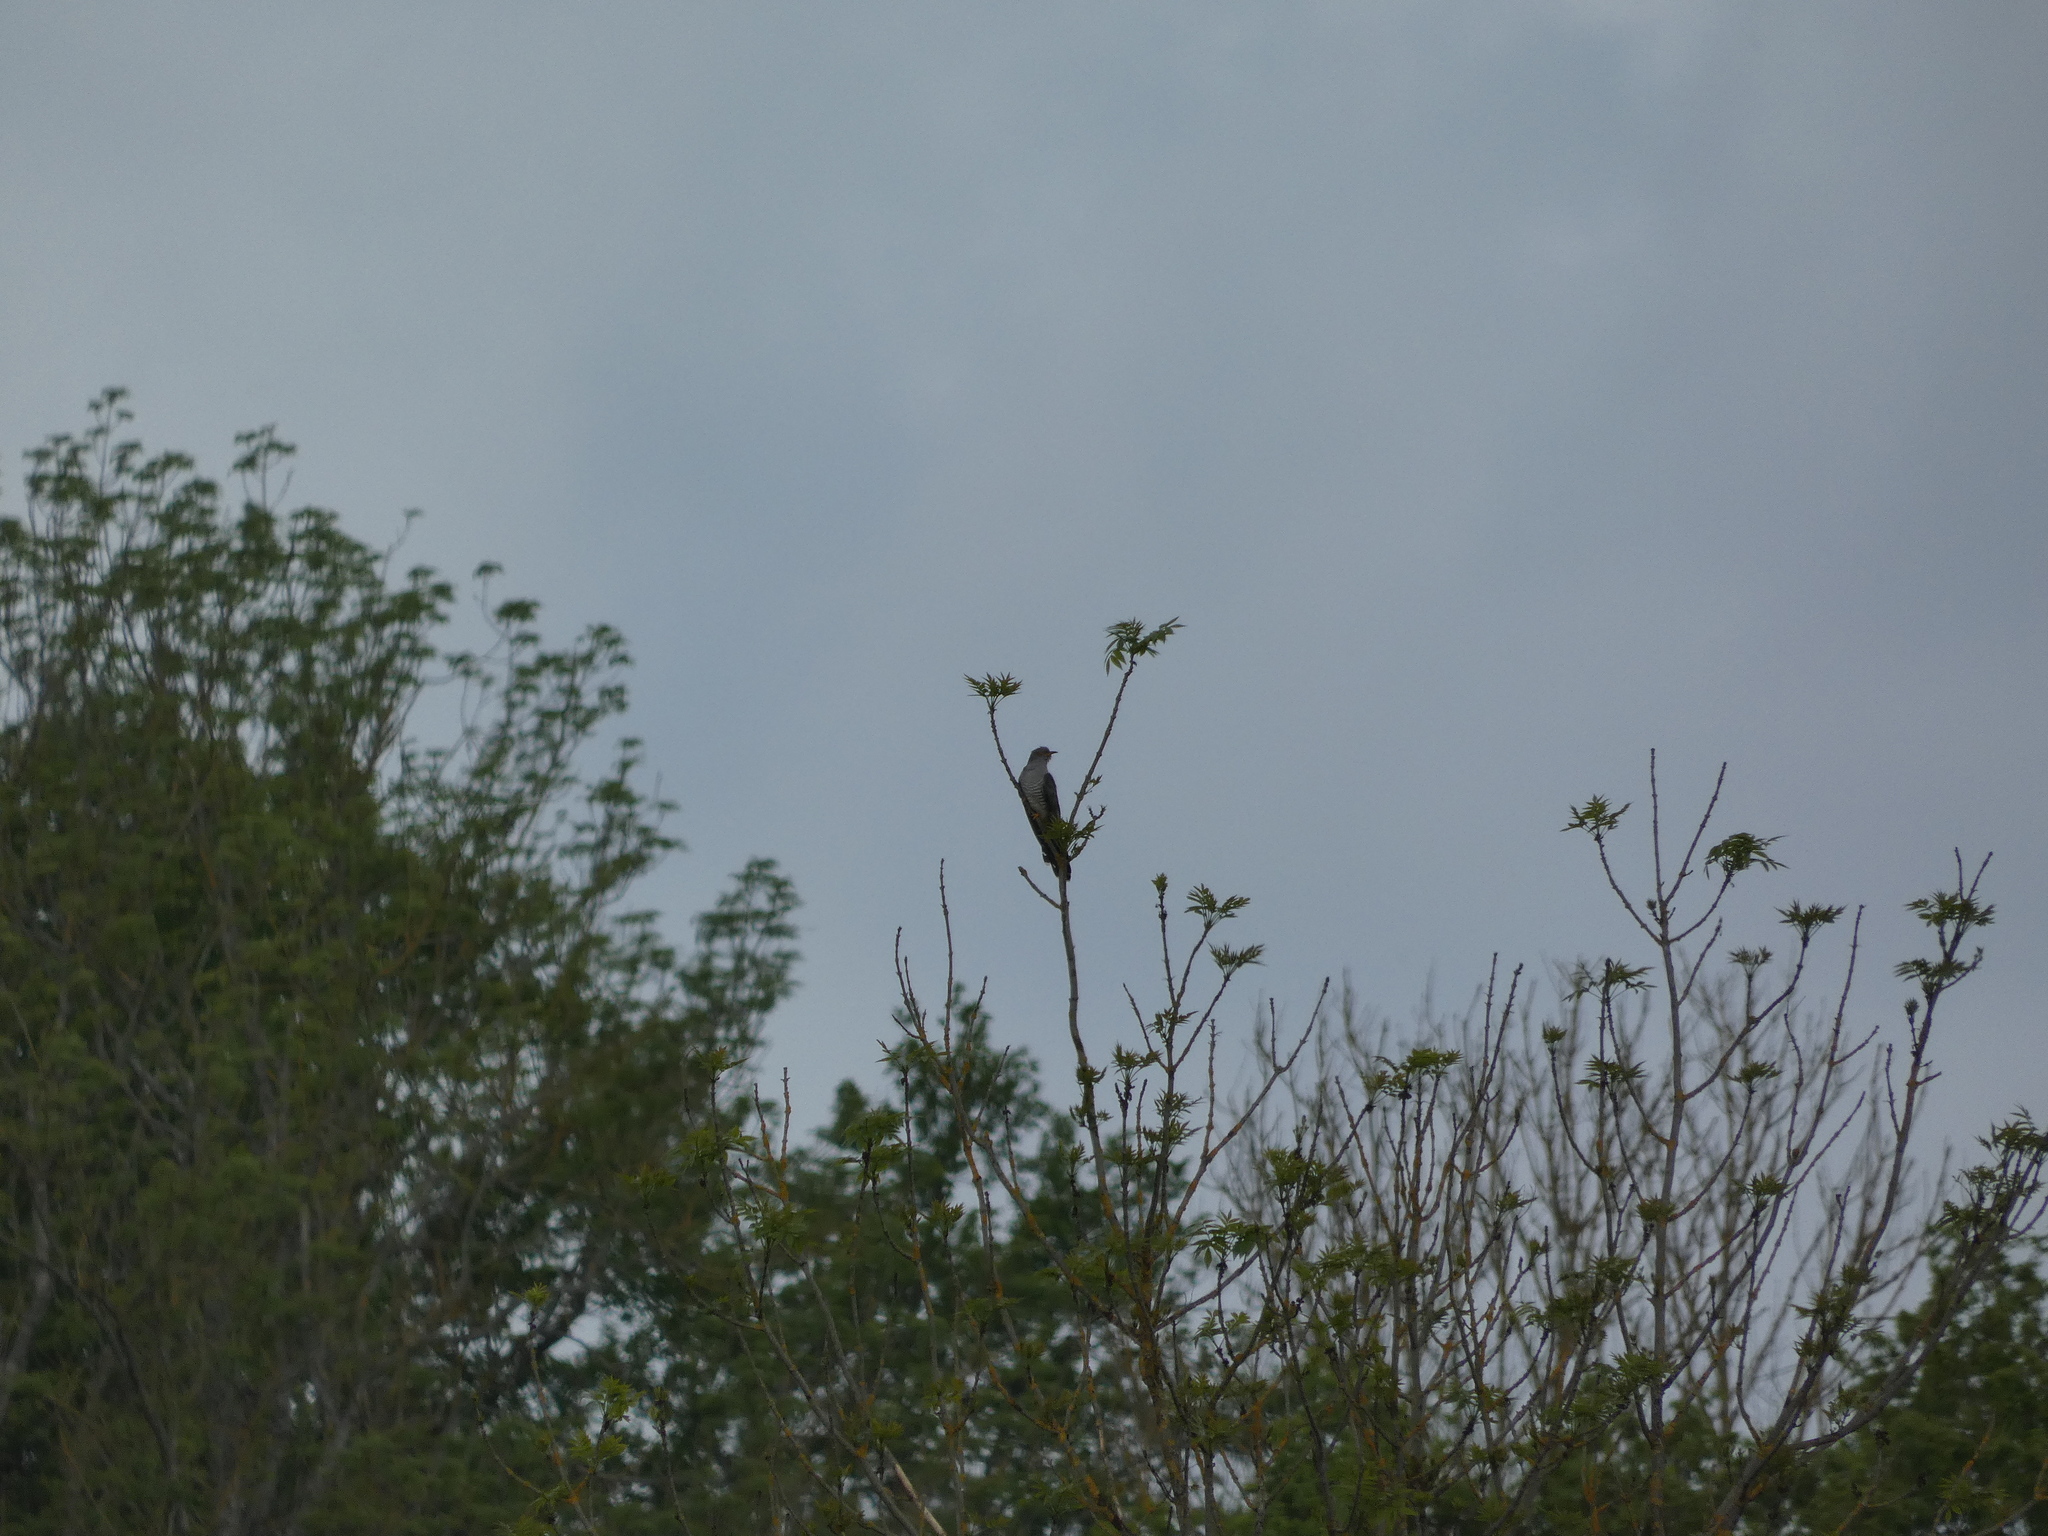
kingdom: Animalia
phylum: Chordata
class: Aves
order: Cuculiformes
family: Cuculidae
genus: Cuculus
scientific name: Cuculus canorus
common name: Common cuckoo
